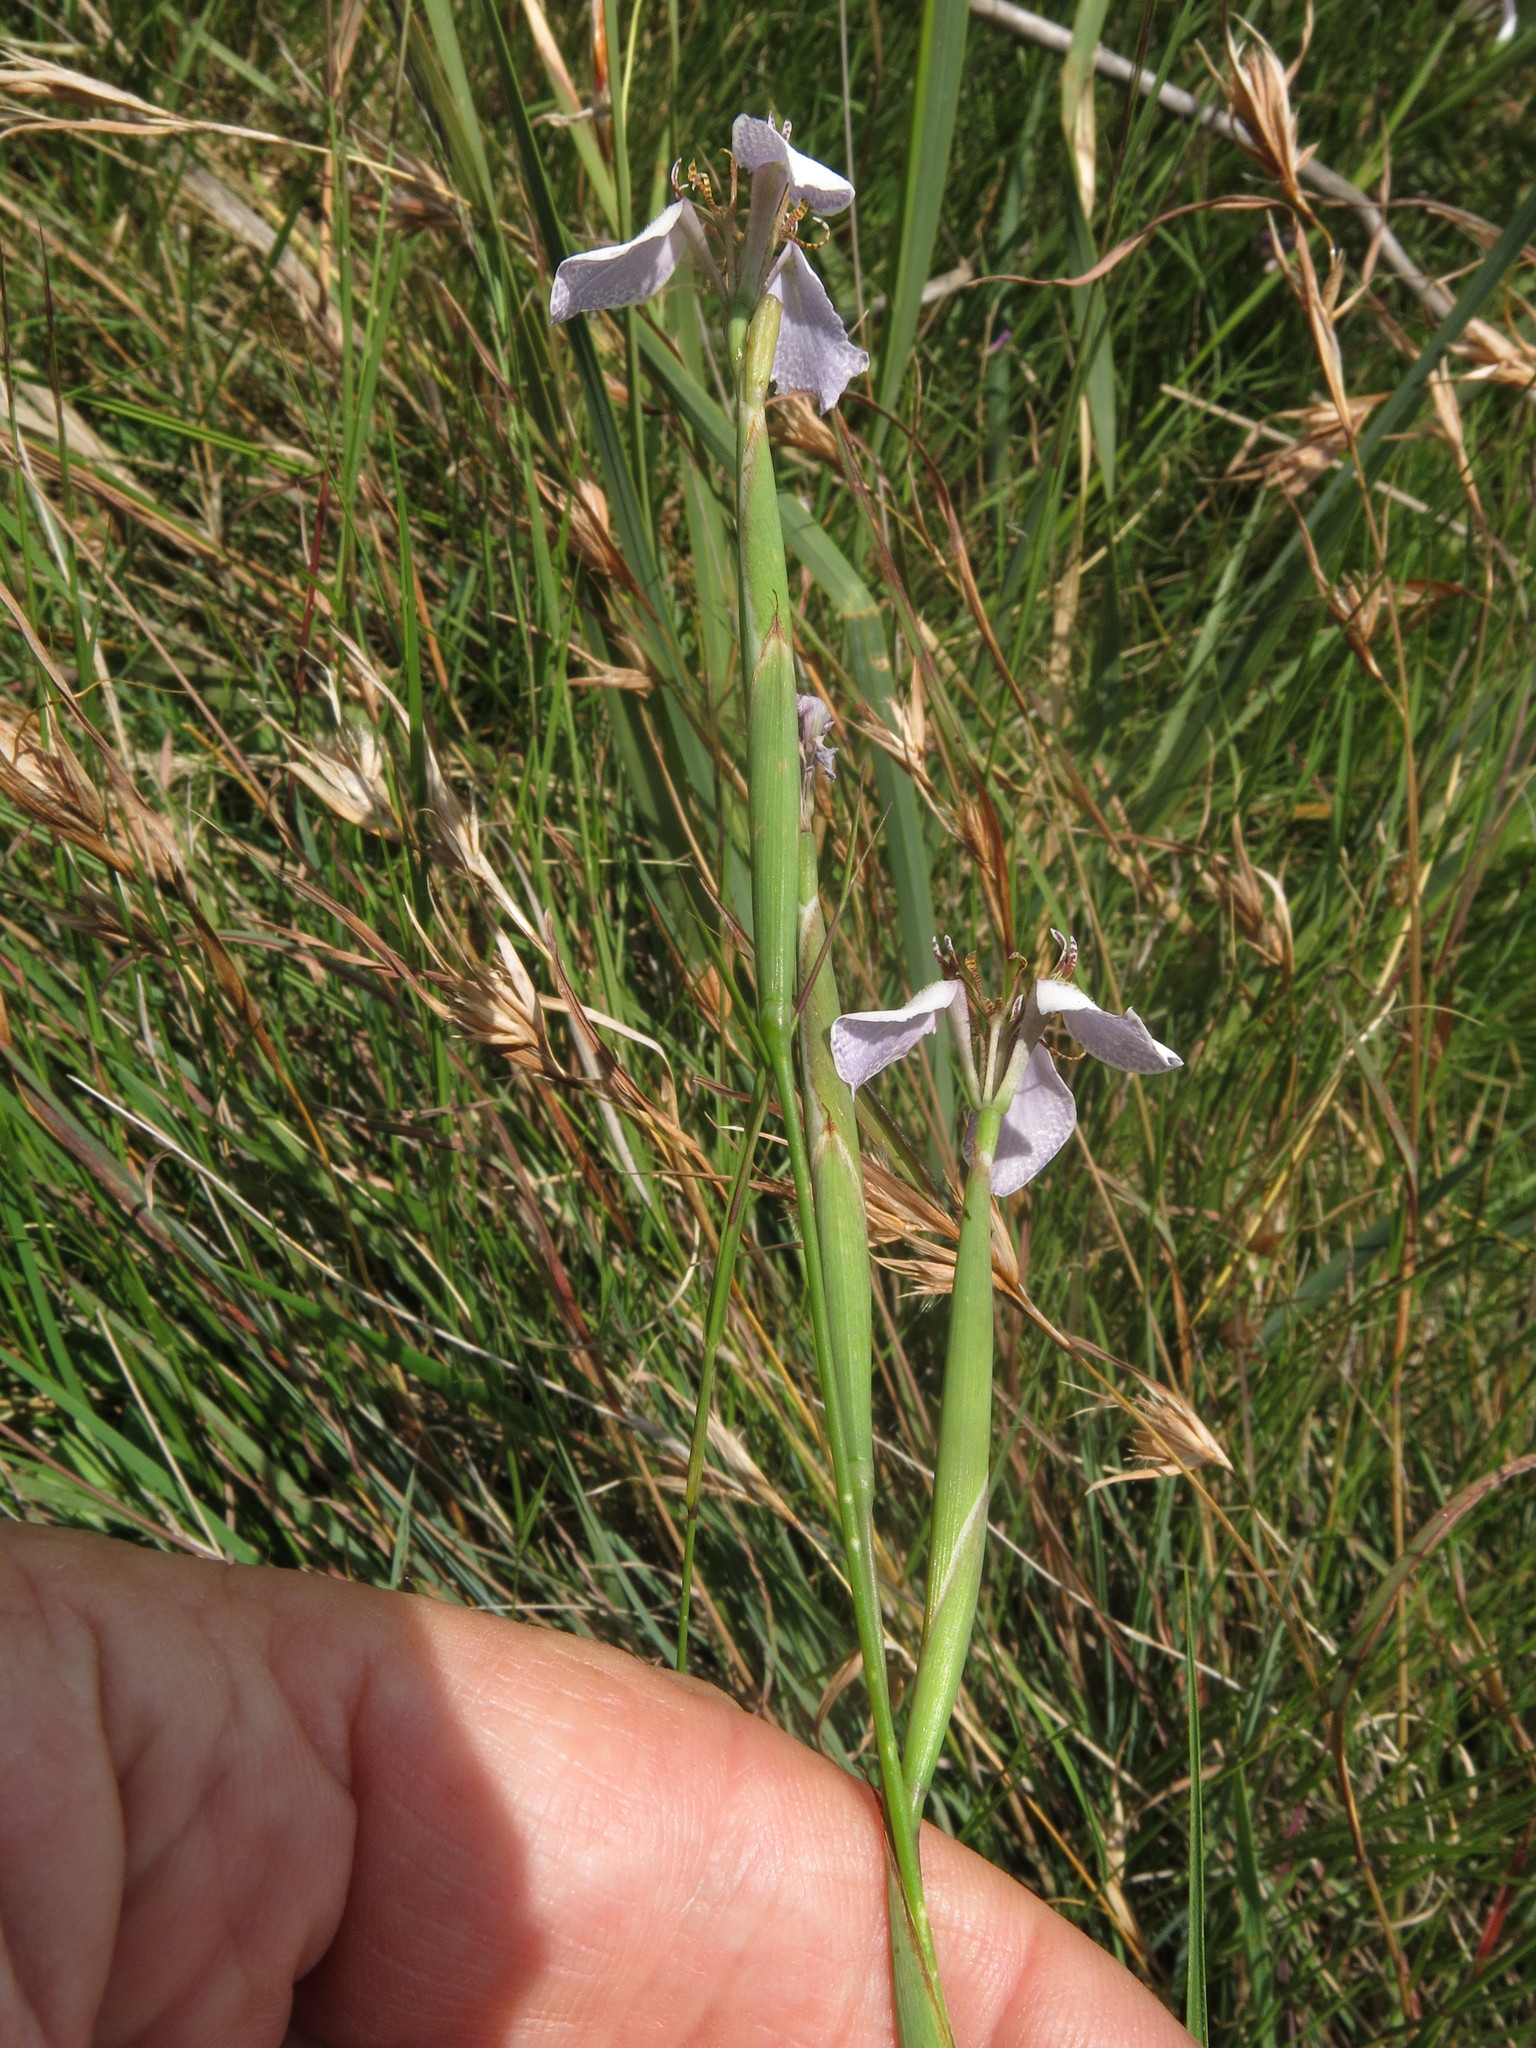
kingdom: Plantae
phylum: Tracheophyta
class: Liliopsida
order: Asparagales
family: Iridaceae
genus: Moraea
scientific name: Moraea brevistyla
